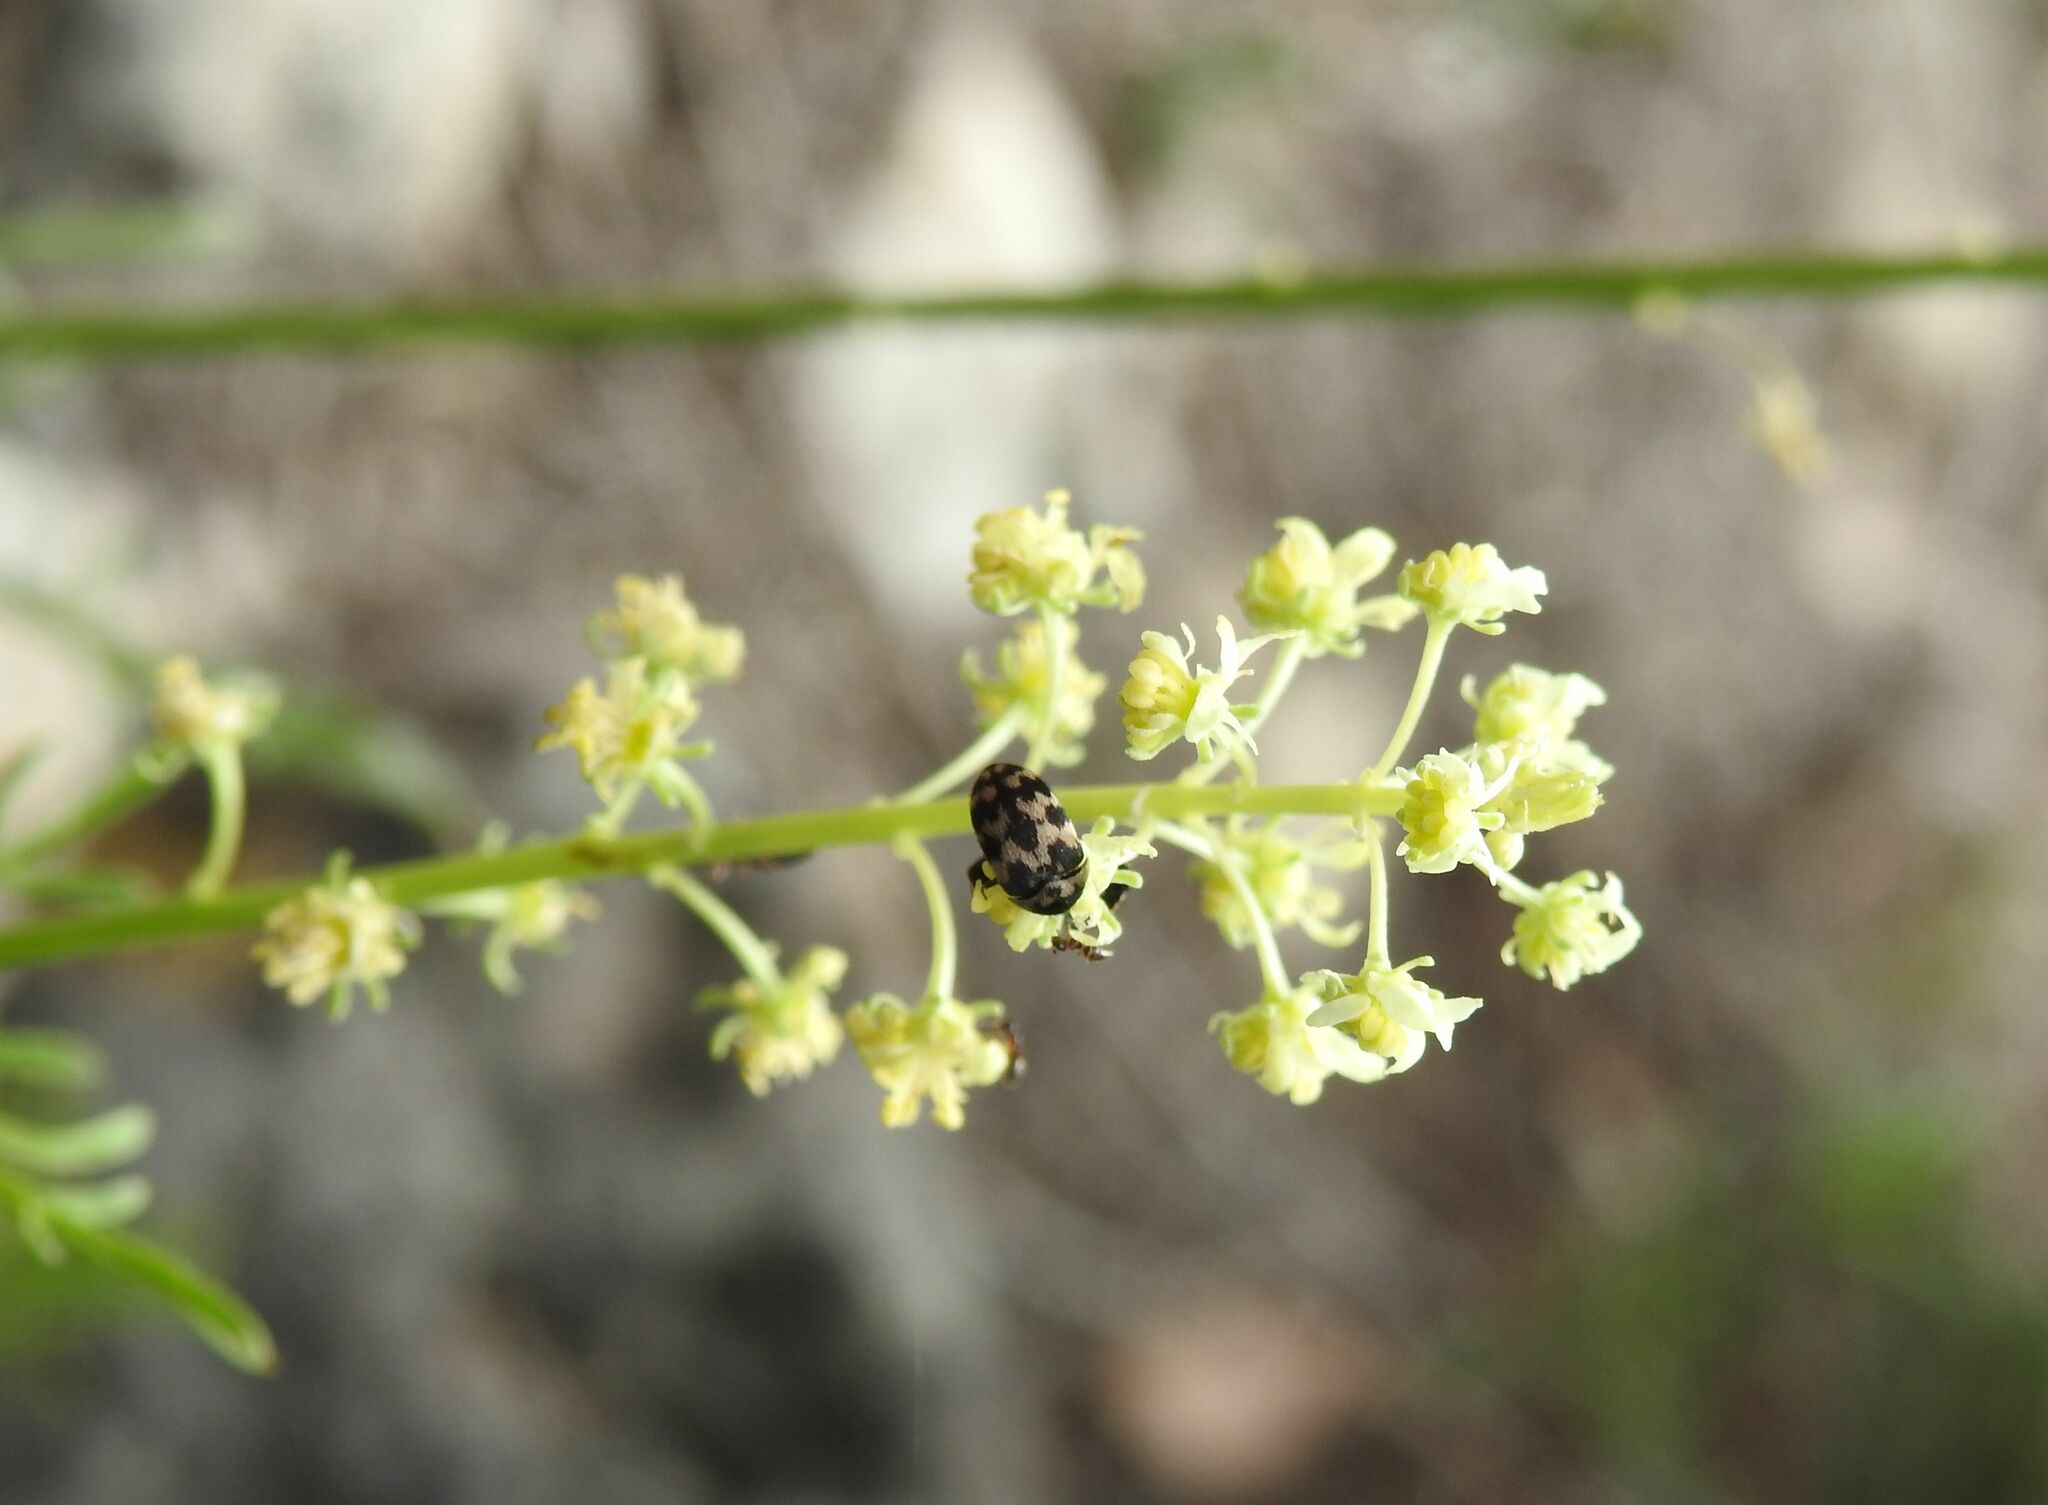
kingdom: Plantae
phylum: Tracheophyta
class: Magnoliopsida
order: Brassicales
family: Resedaceae
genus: Reseda
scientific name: Reseda lutea
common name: Wild mignonette
